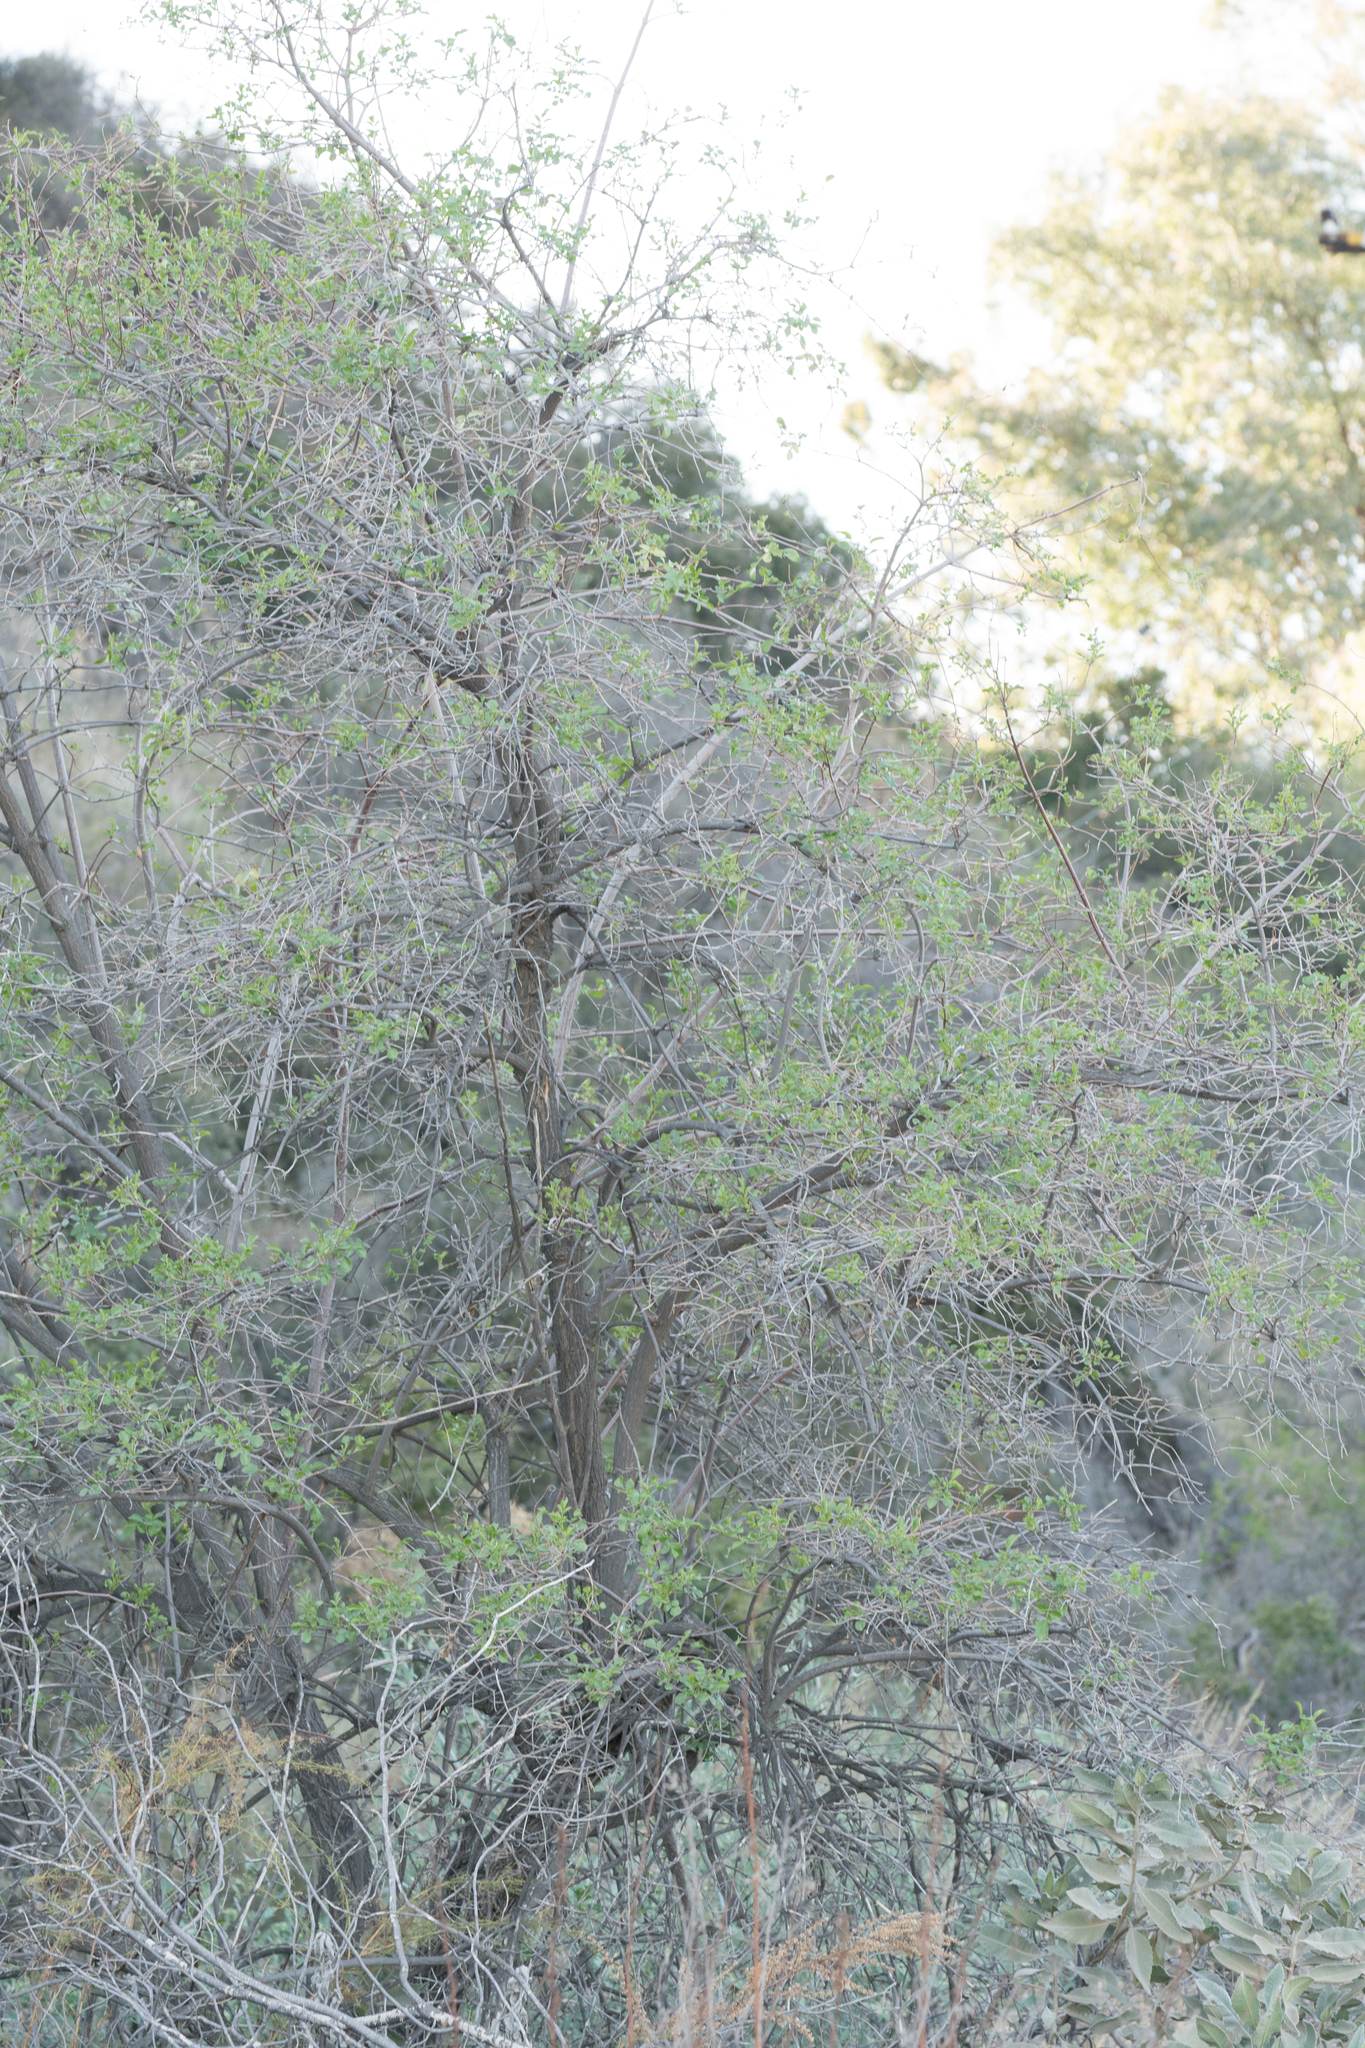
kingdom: Plantae
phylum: Tracheophyta
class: Magnoliopsida
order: Dipsacales
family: Viburnaceae
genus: Sambucus
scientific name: Sambucus cerulea
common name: Blue elder
